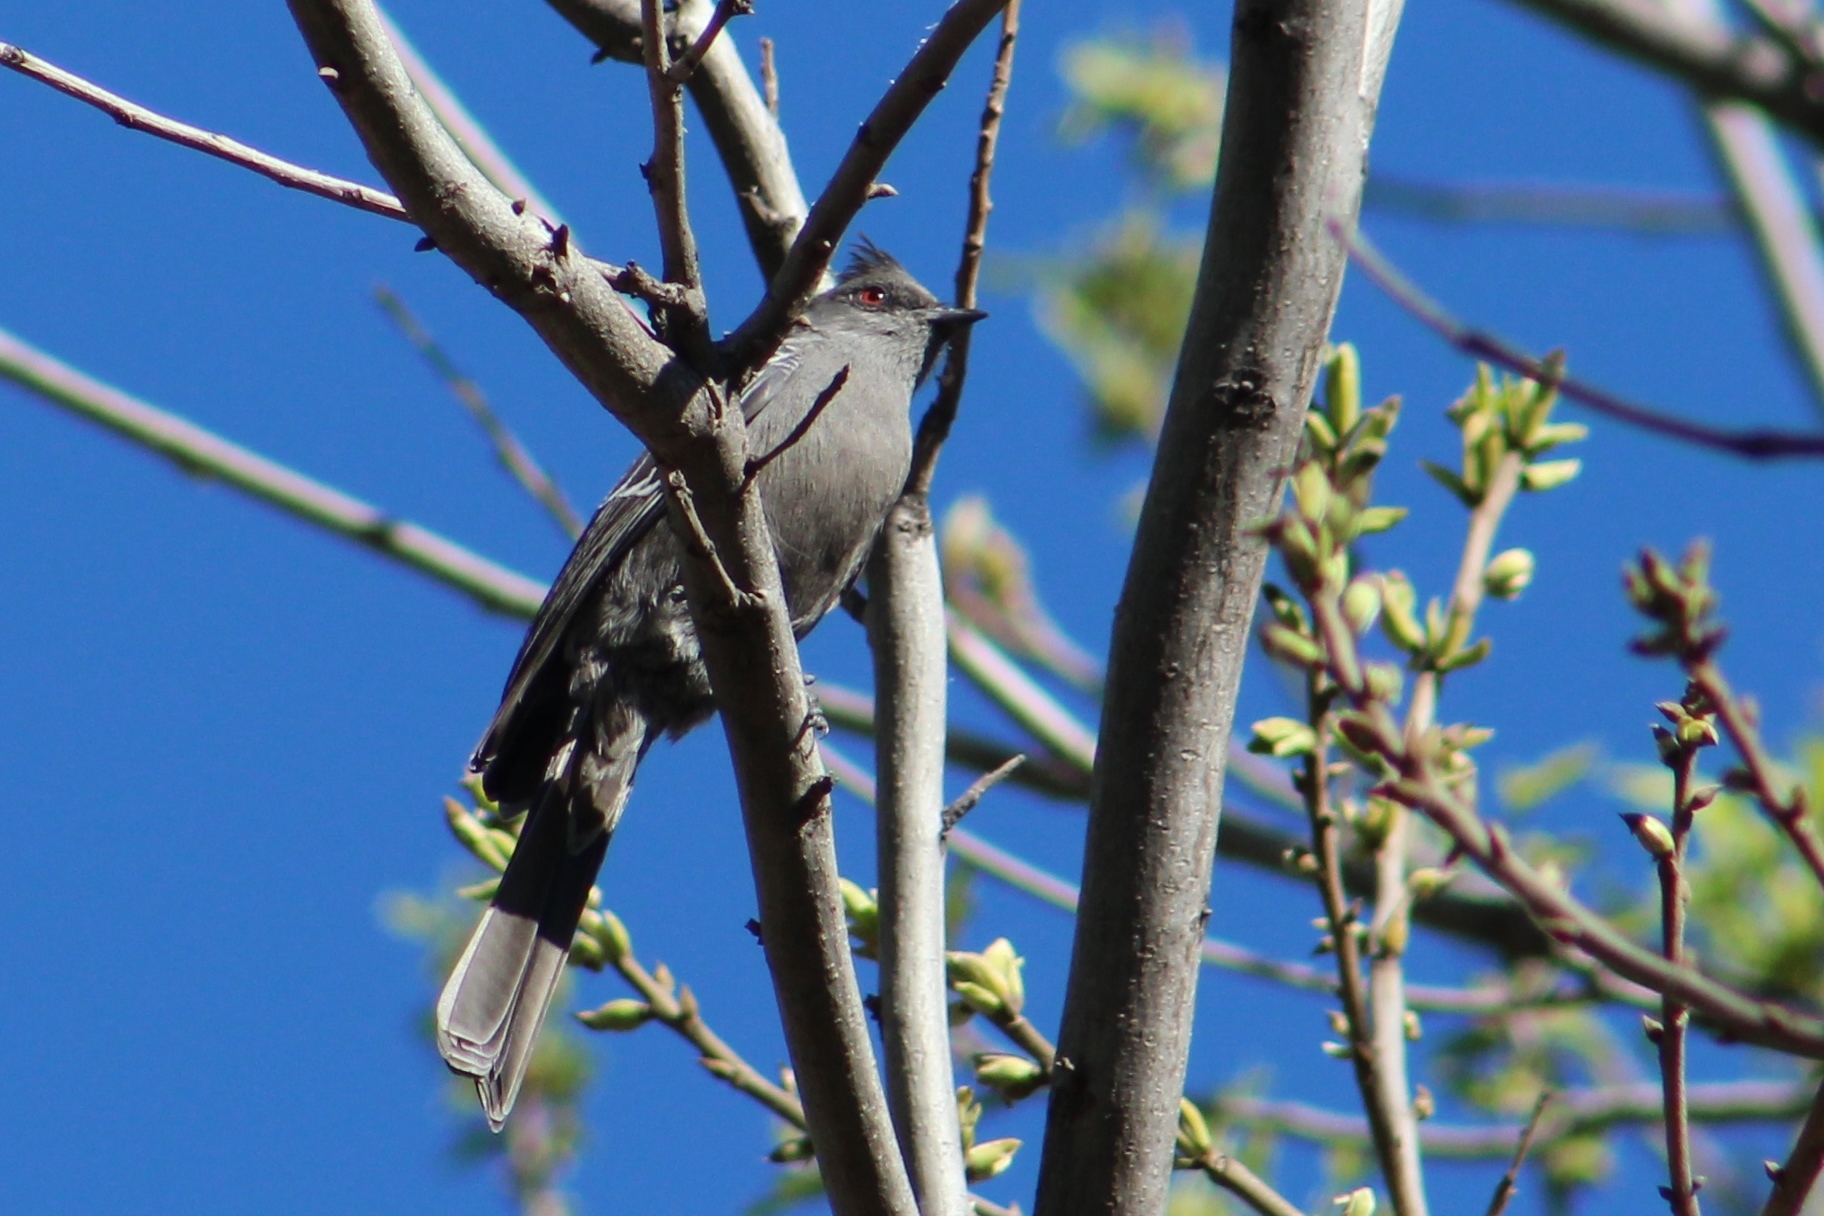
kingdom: Animalia
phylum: Chordata
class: Aves
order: Passeriformes
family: Ptilogonatidae
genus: Phainopepla
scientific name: Phainopepla nitens
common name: Phainopepla
